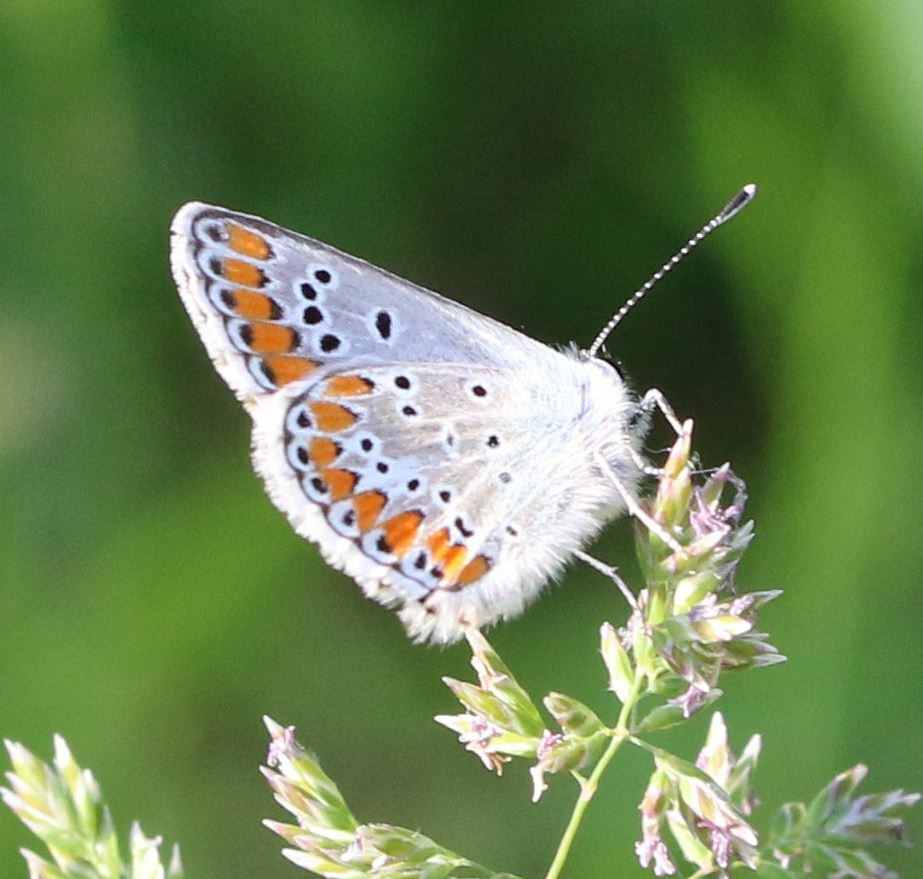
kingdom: Animalia
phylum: Arthropoda
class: Insecta
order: Lepidoptera
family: Lycaenidae
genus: Aricia
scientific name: Aricia agestis
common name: Brown argus
